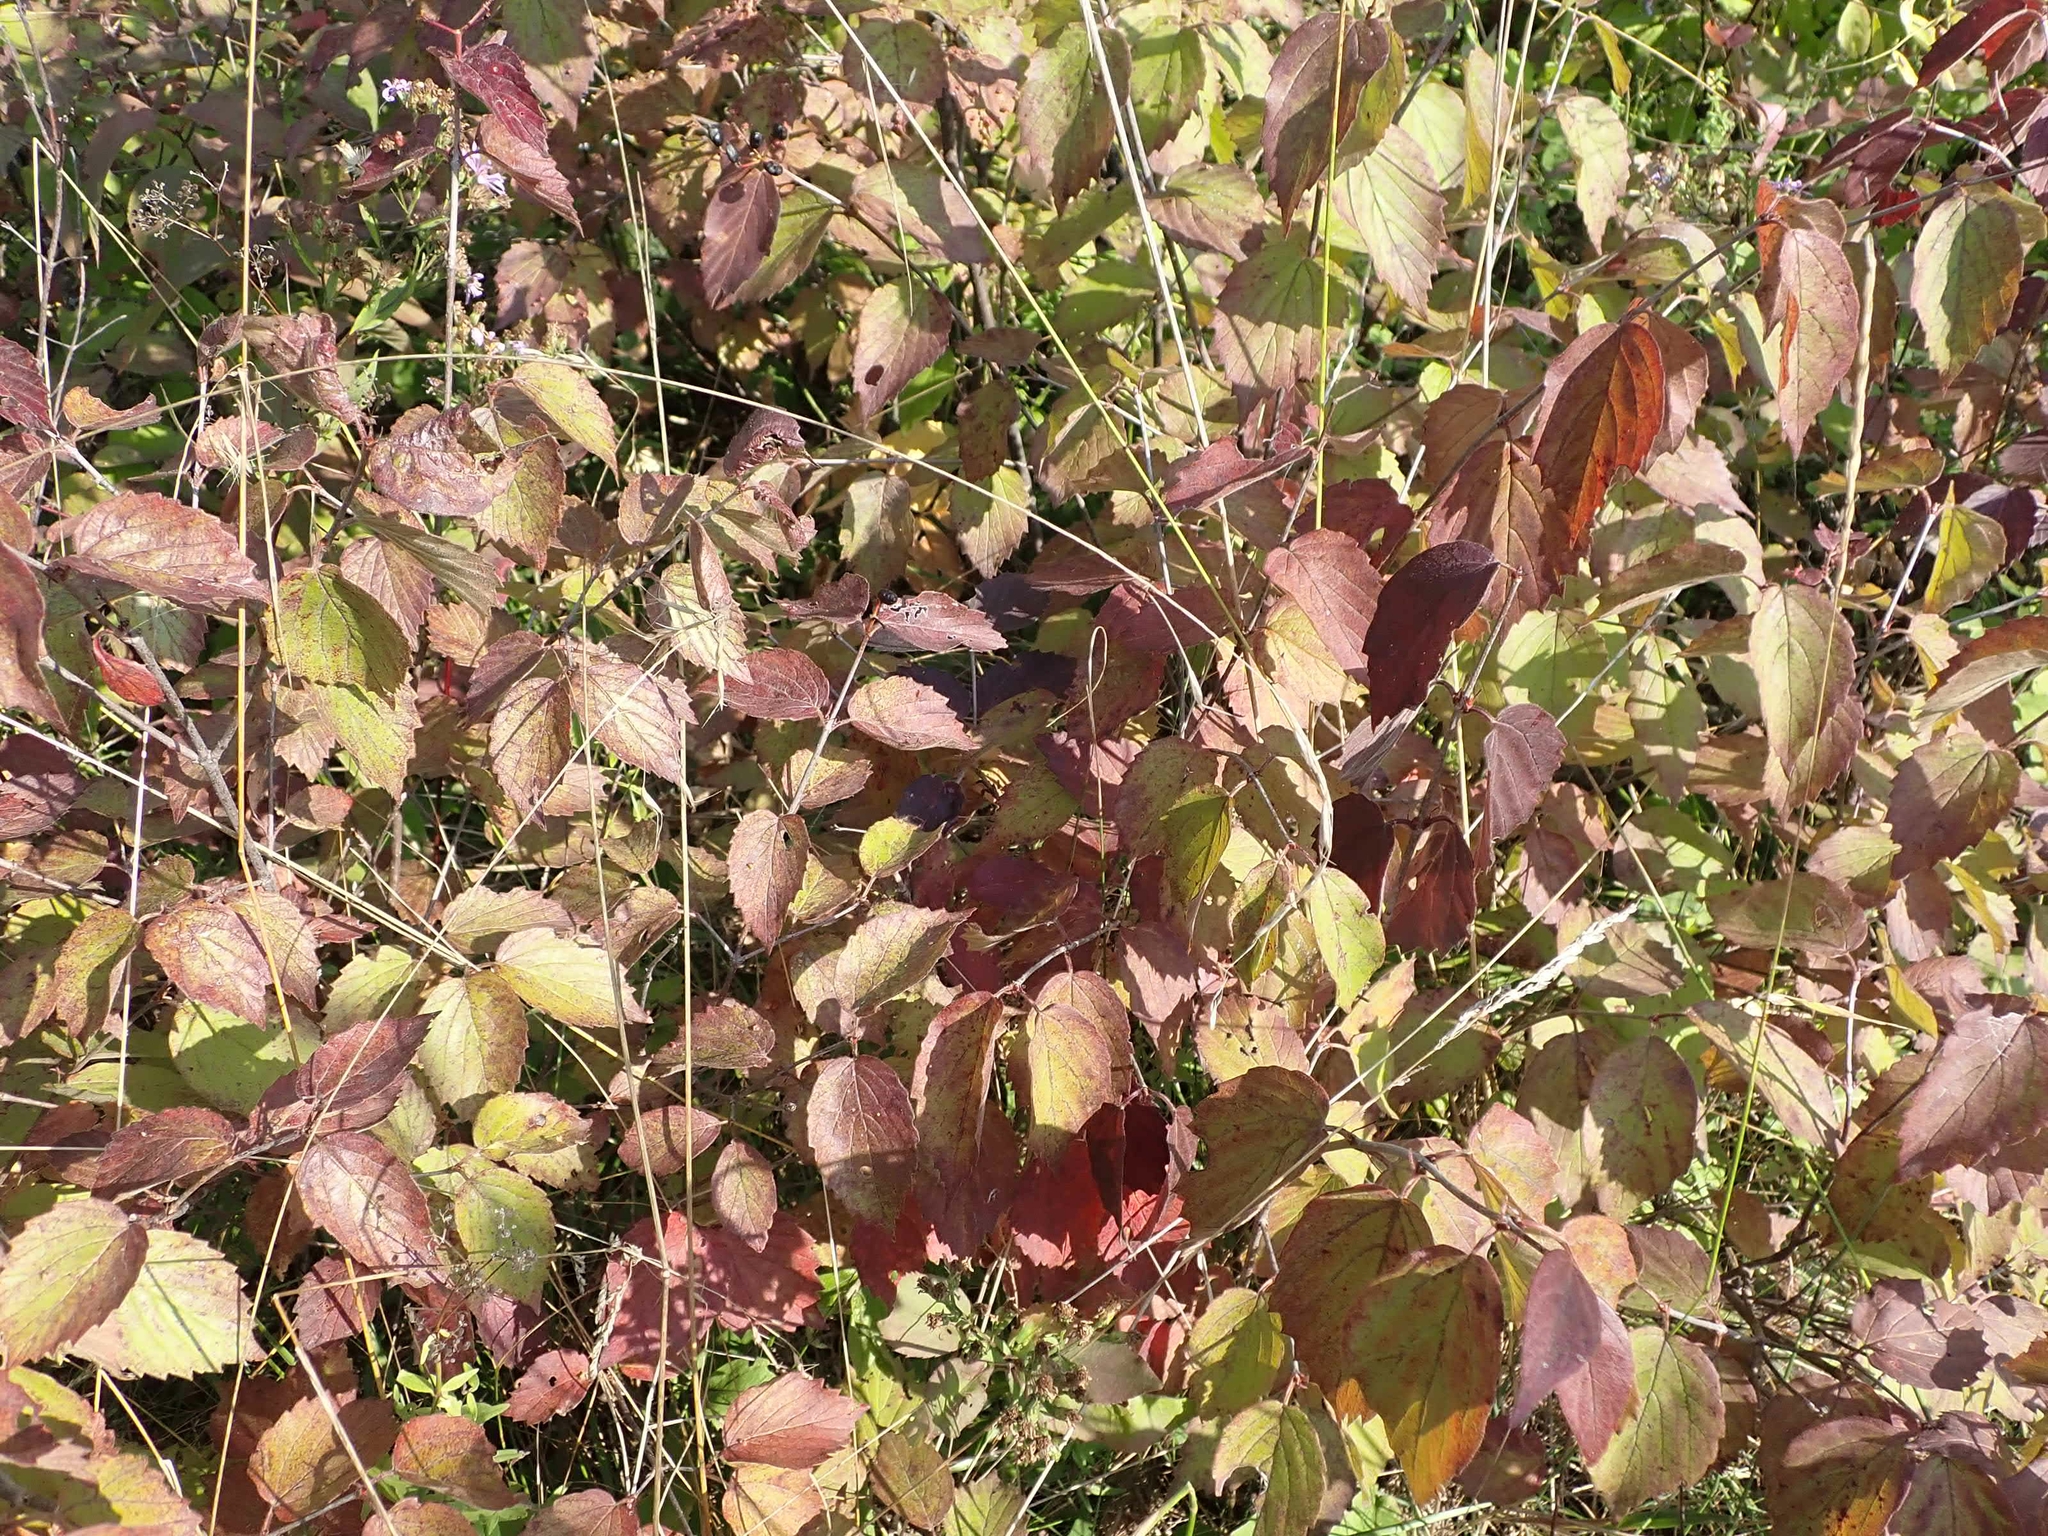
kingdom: Plantae
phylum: Tracheophyta
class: Magnoliopsida
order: Dipsacales
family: Viburnaceae
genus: Viburnum
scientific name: Viburnum rafinesqueanum
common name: Downy arrow-wood
